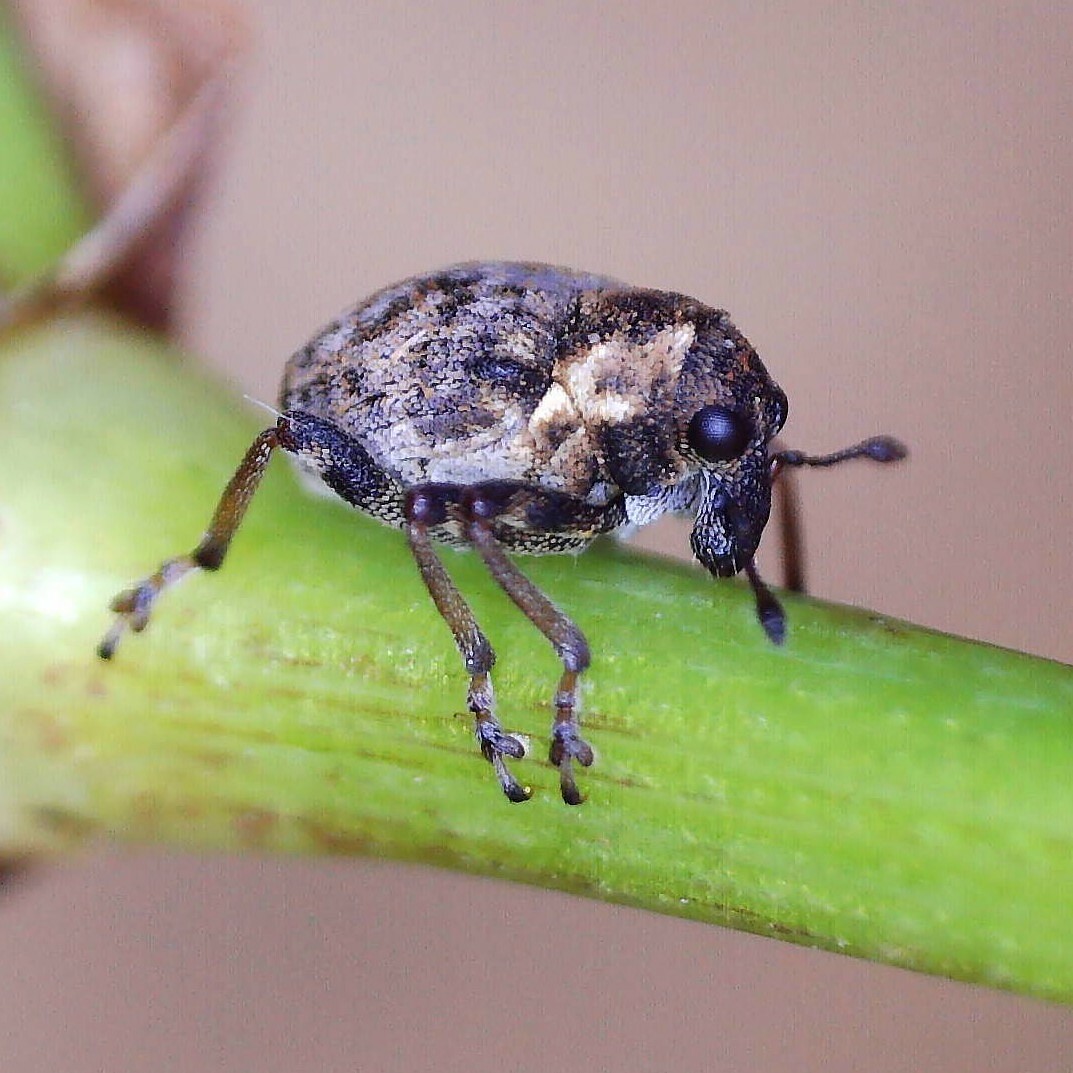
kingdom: Animalia
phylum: Arthropoda
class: Insecta
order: Coleoptera
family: Curculionidae
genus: Phytobius
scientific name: Phytobius waltoni
